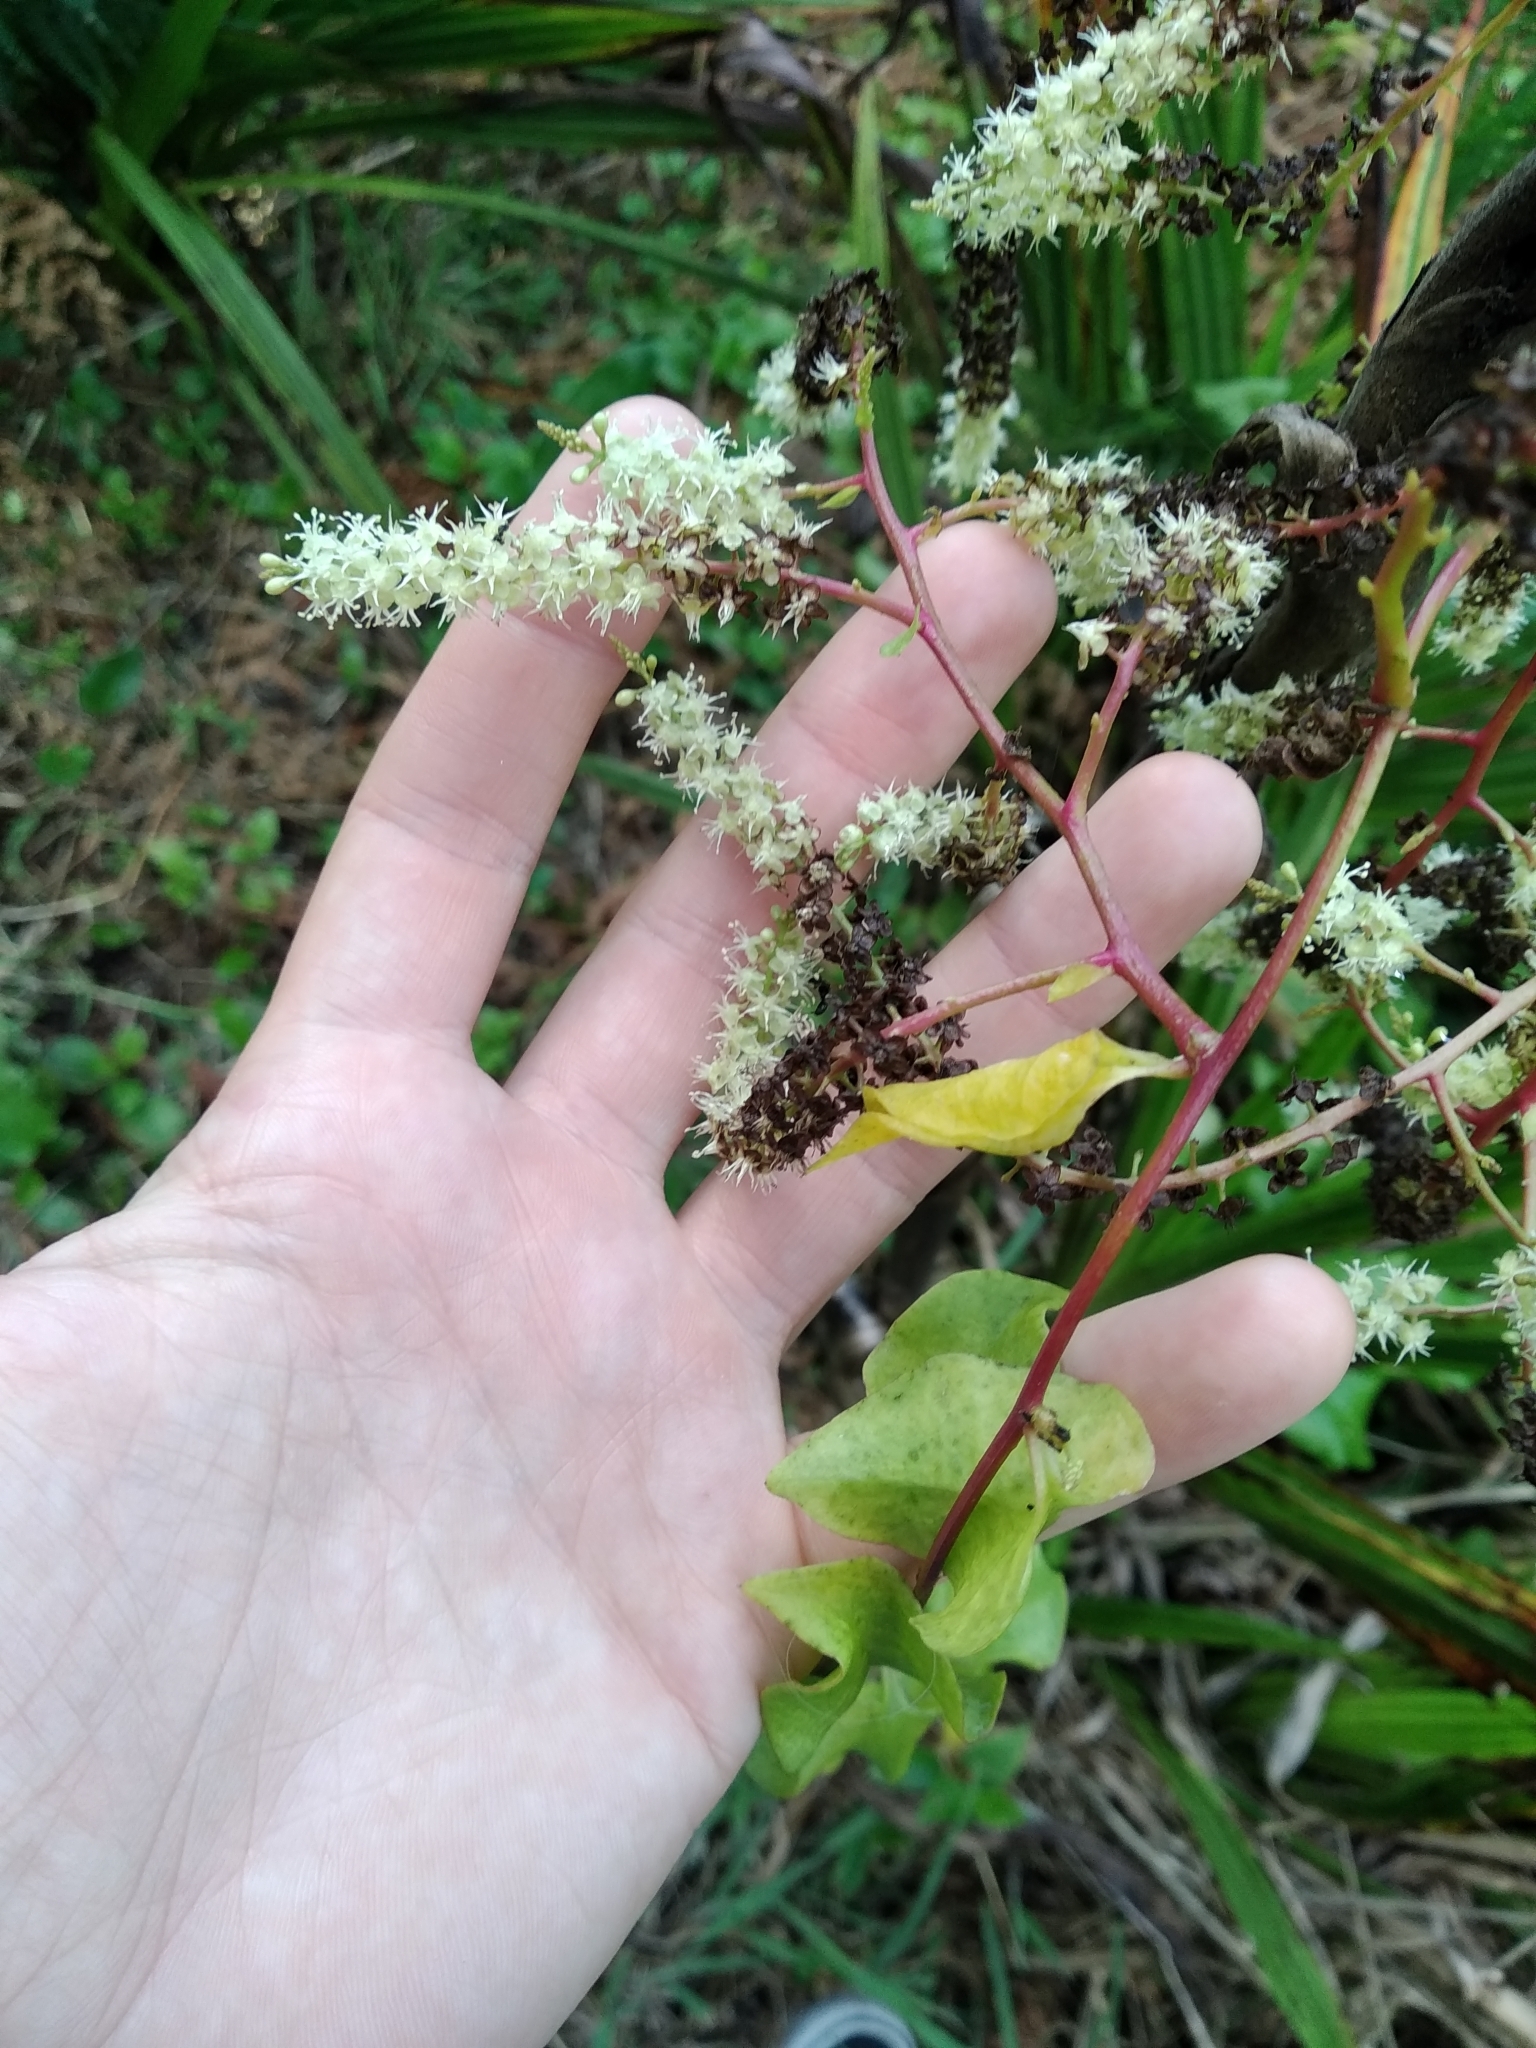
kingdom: Plantae
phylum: Tracheophyta
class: Magnoliopsida
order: Caryophyllales
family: Basellaceae
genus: Anredera
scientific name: Anredera cordifolia
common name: Heartleaf madeiravine
